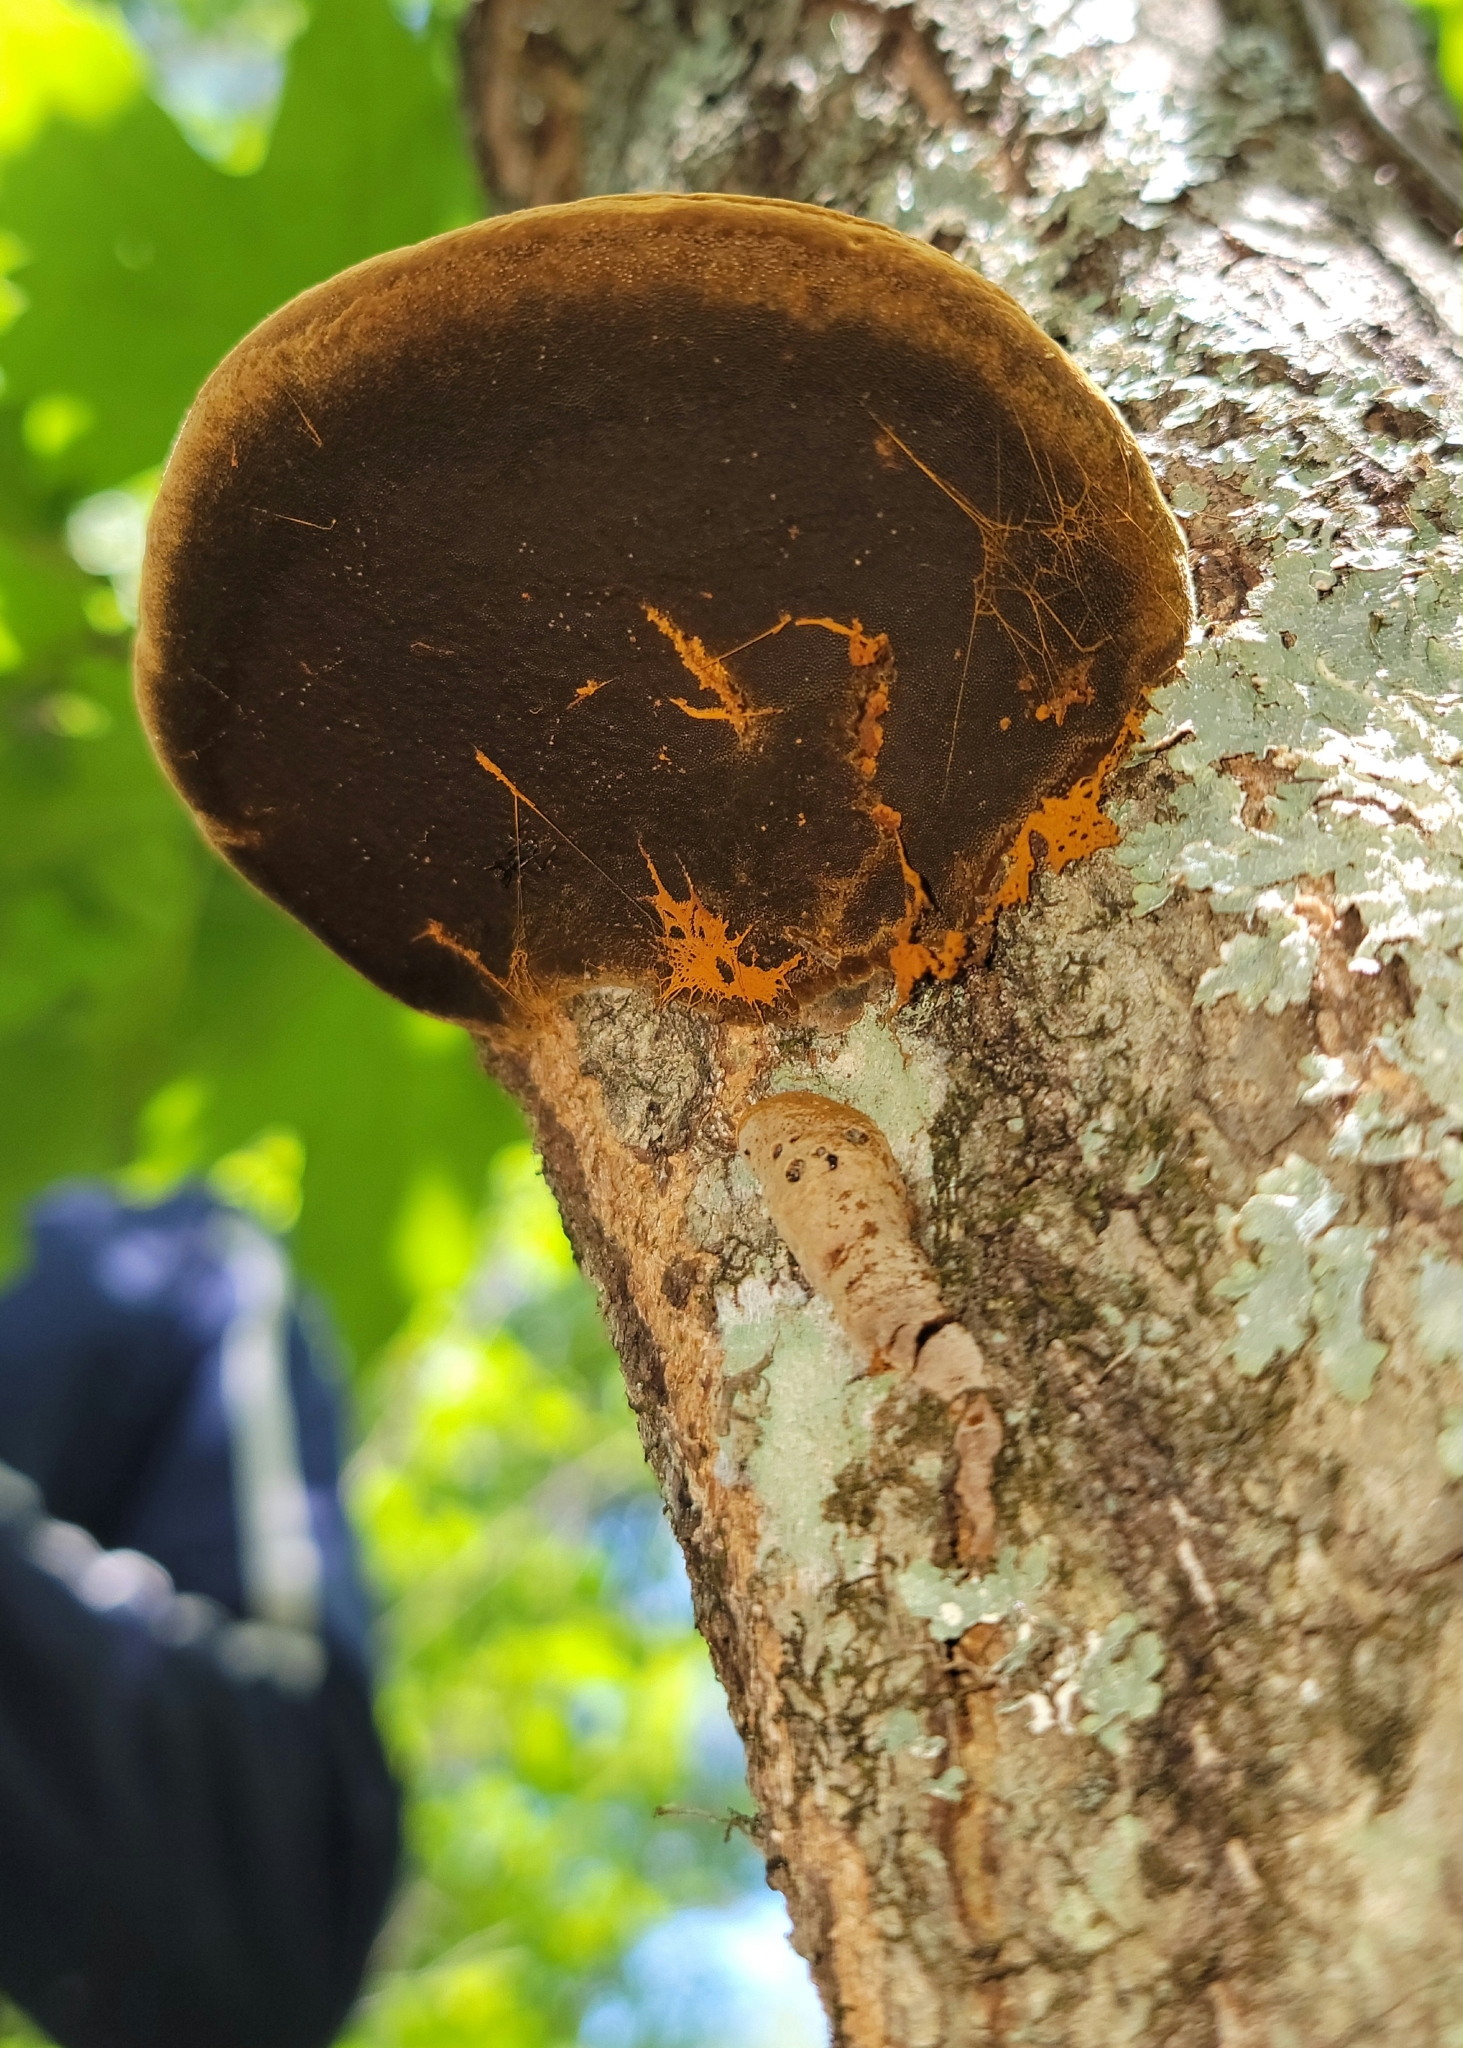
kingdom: Fungi
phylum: Basidiomycota
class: Agaricomycetes
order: Polyporales
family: Polyporaceae
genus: Trametes
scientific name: Trametes cinnabarina
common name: Northern cinnabar polypore
